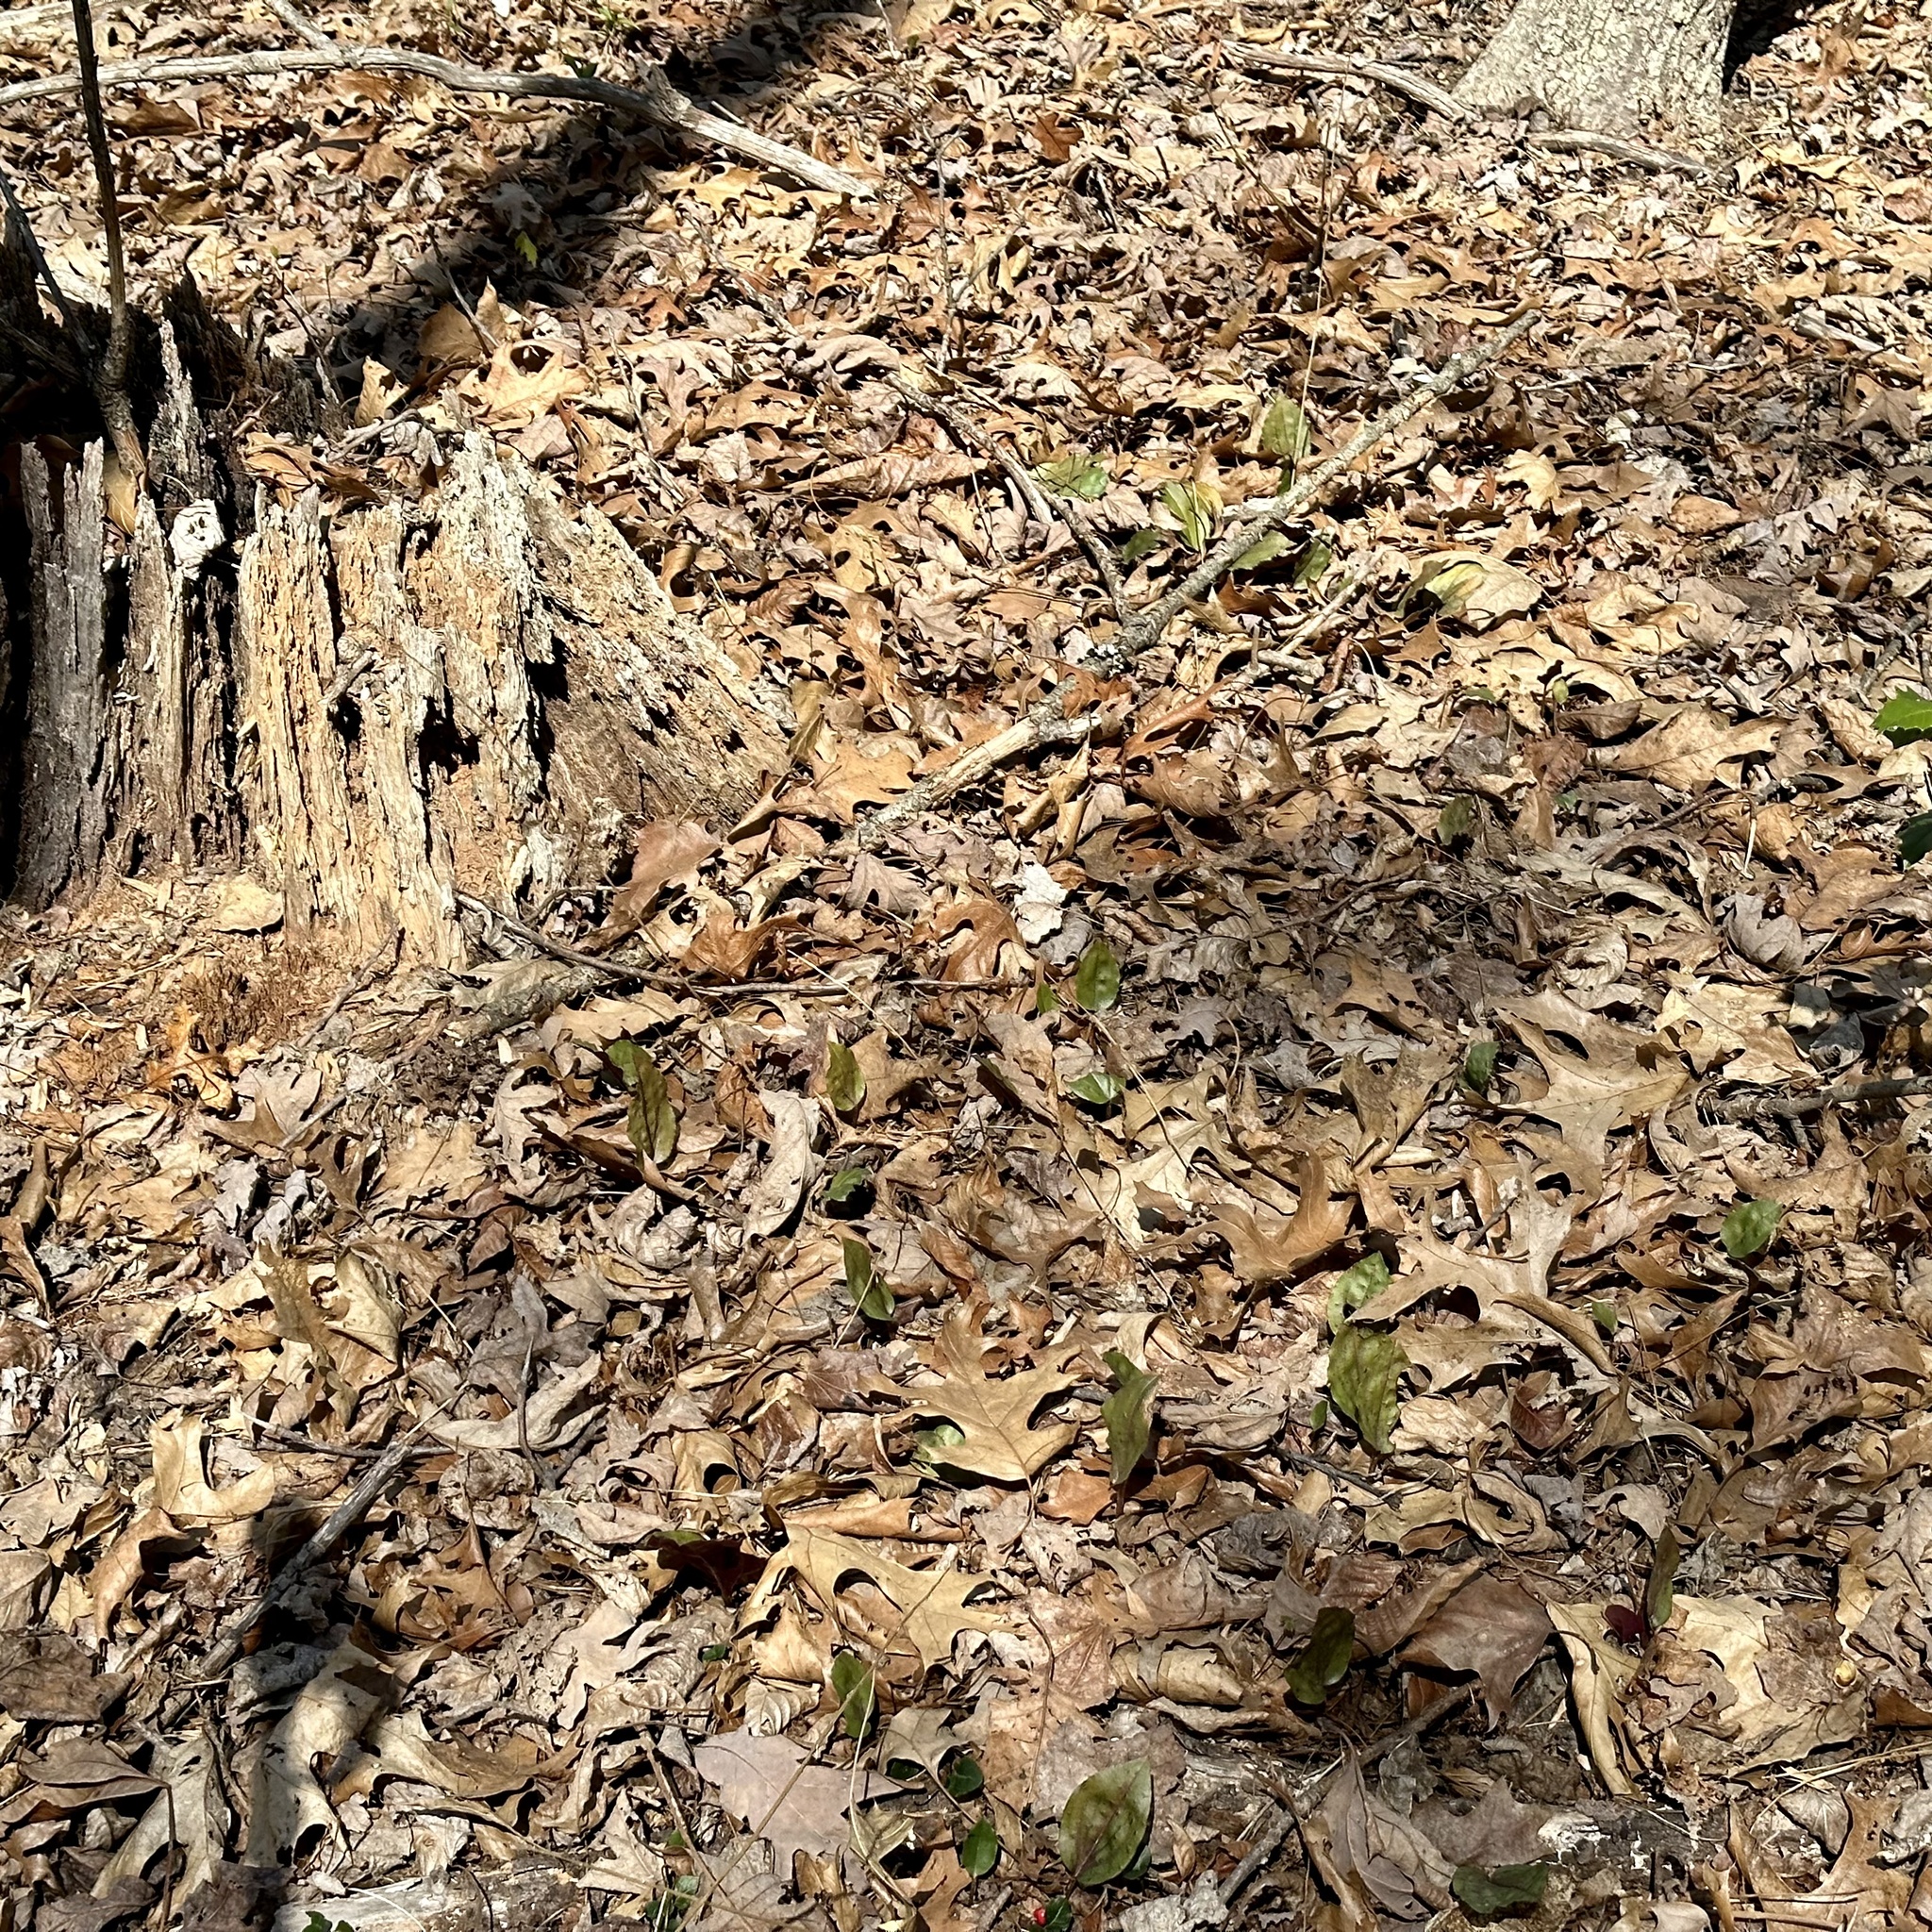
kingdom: Plantae
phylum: Tracheophyta
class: Liliopsida
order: Asparagales
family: Orchidaceae
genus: Tipularia
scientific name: Tipularia discolor
